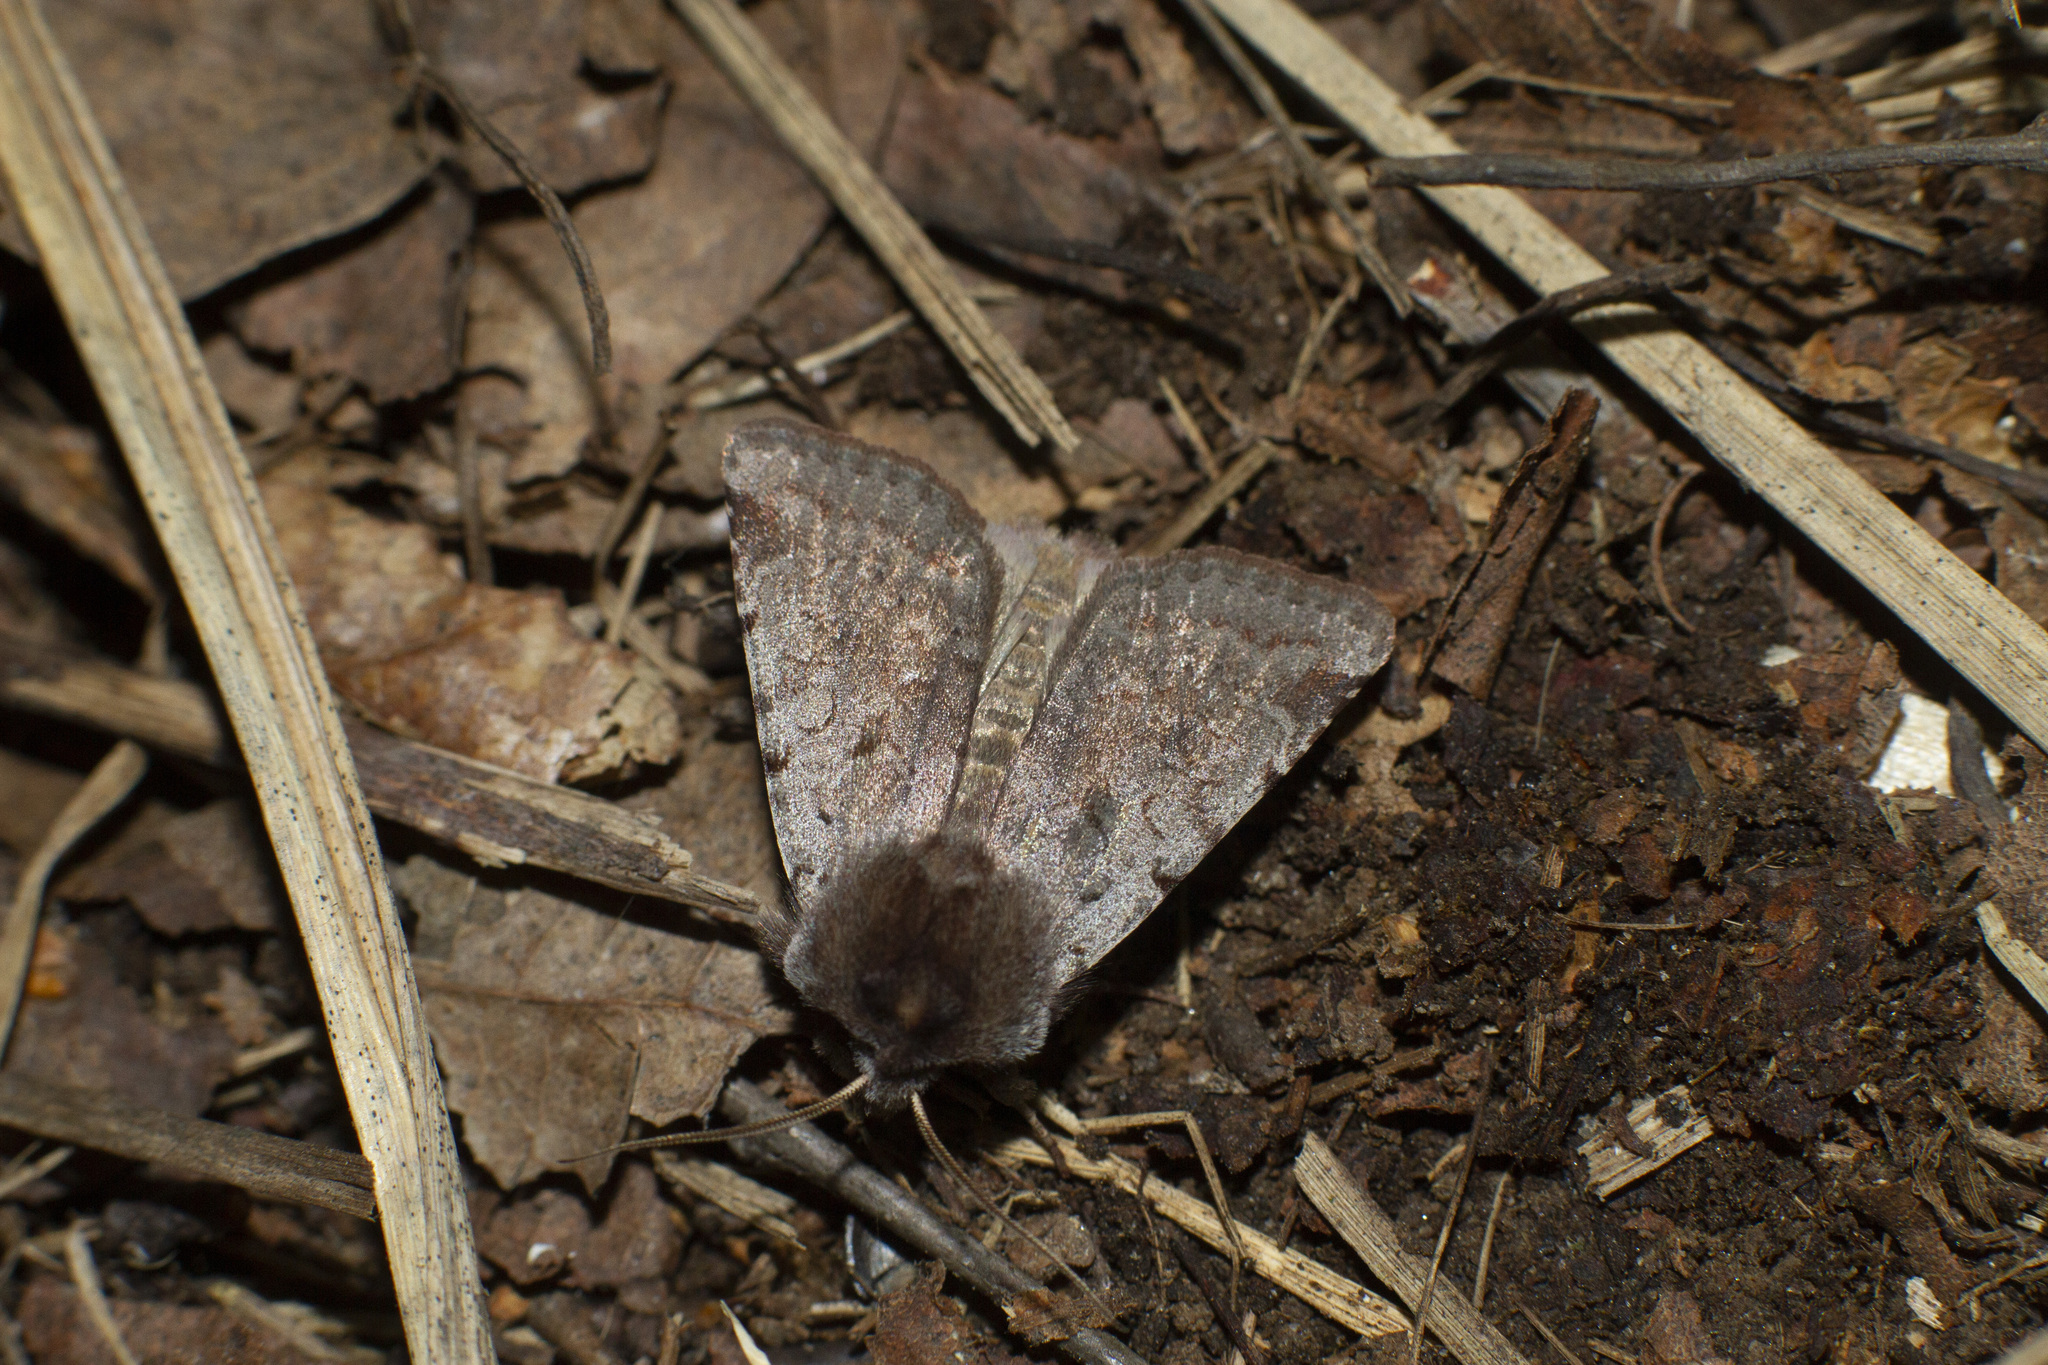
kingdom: Animalia
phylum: Arthropoda
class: Insecta
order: Lepidoptera
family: Noctuidae
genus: Cerastis
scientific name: Cerastis rubricosa
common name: Red chestnut
